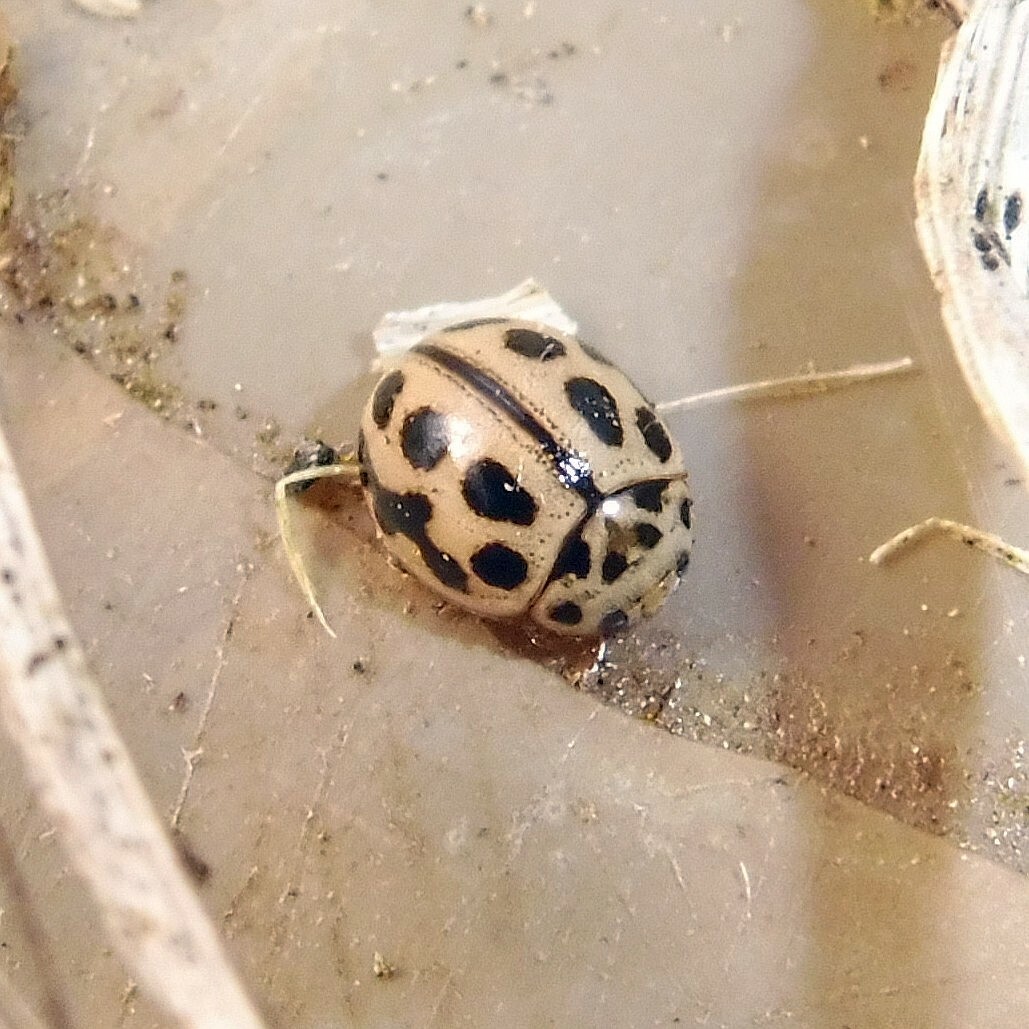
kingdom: Animalia
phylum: Arthropoda
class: Insecta
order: Coleoptera
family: Coccinellidae
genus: Tytthaspis
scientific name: Tytthaspis sedecimpunctata
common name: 16-spot ladybird
